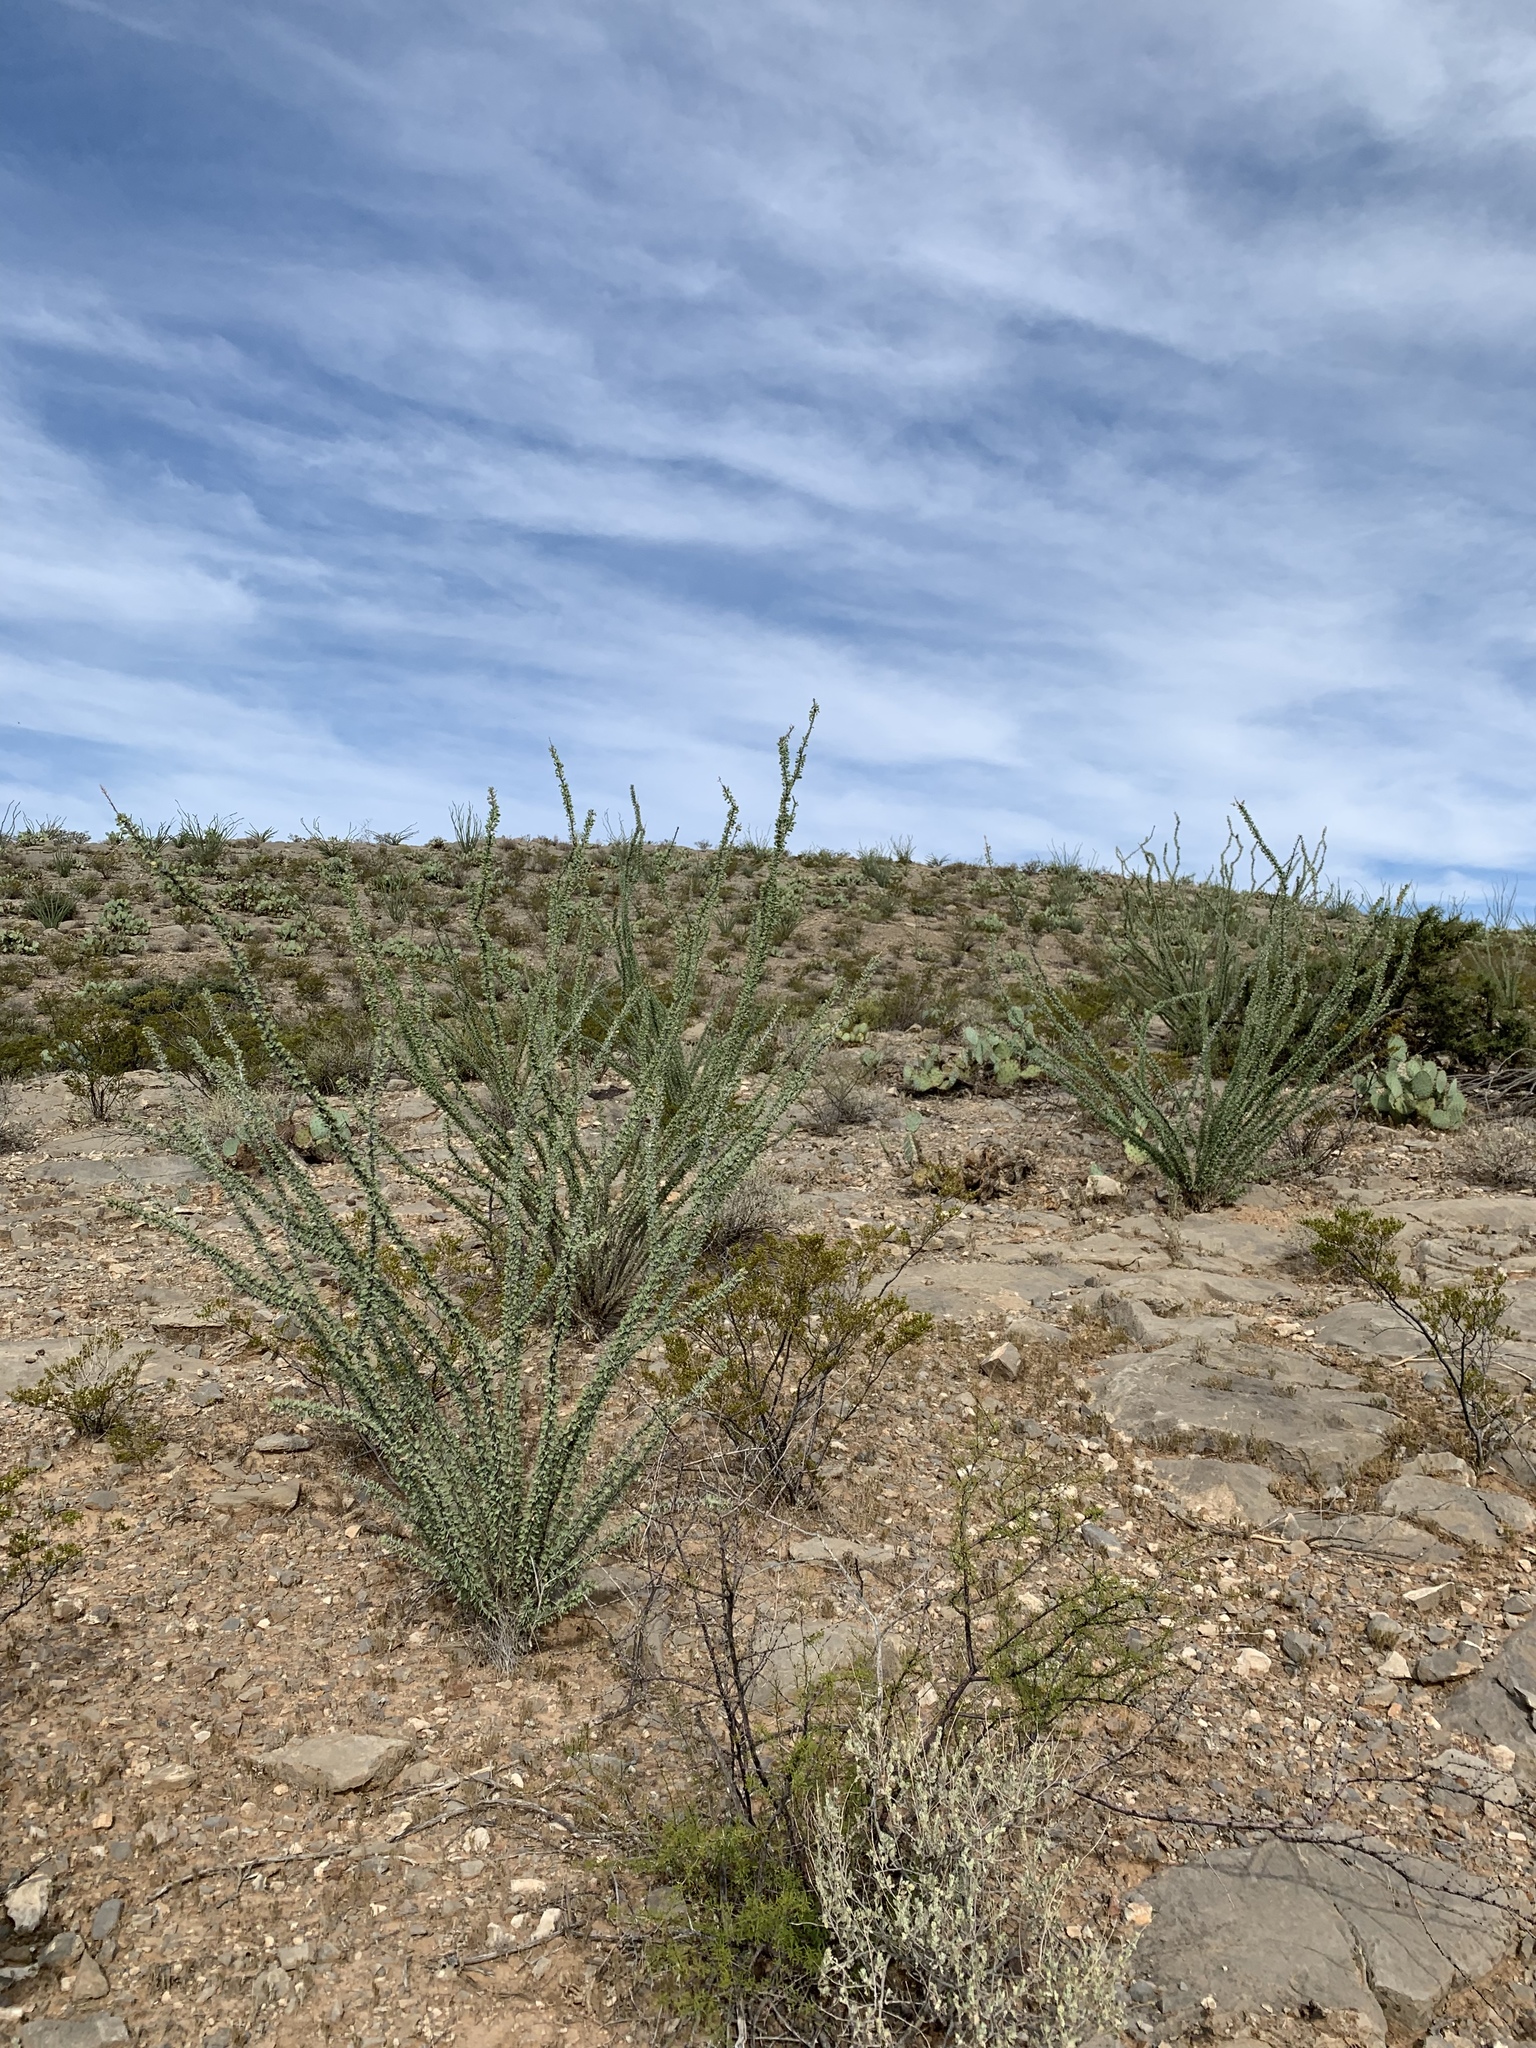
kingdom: Plantae
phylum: Tracheophyta
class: Magnoliopsida
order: Ericales
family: Fouquieriaceae
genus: Fouquieria
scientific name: Fouquieria splendens
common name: Vine-cactus
